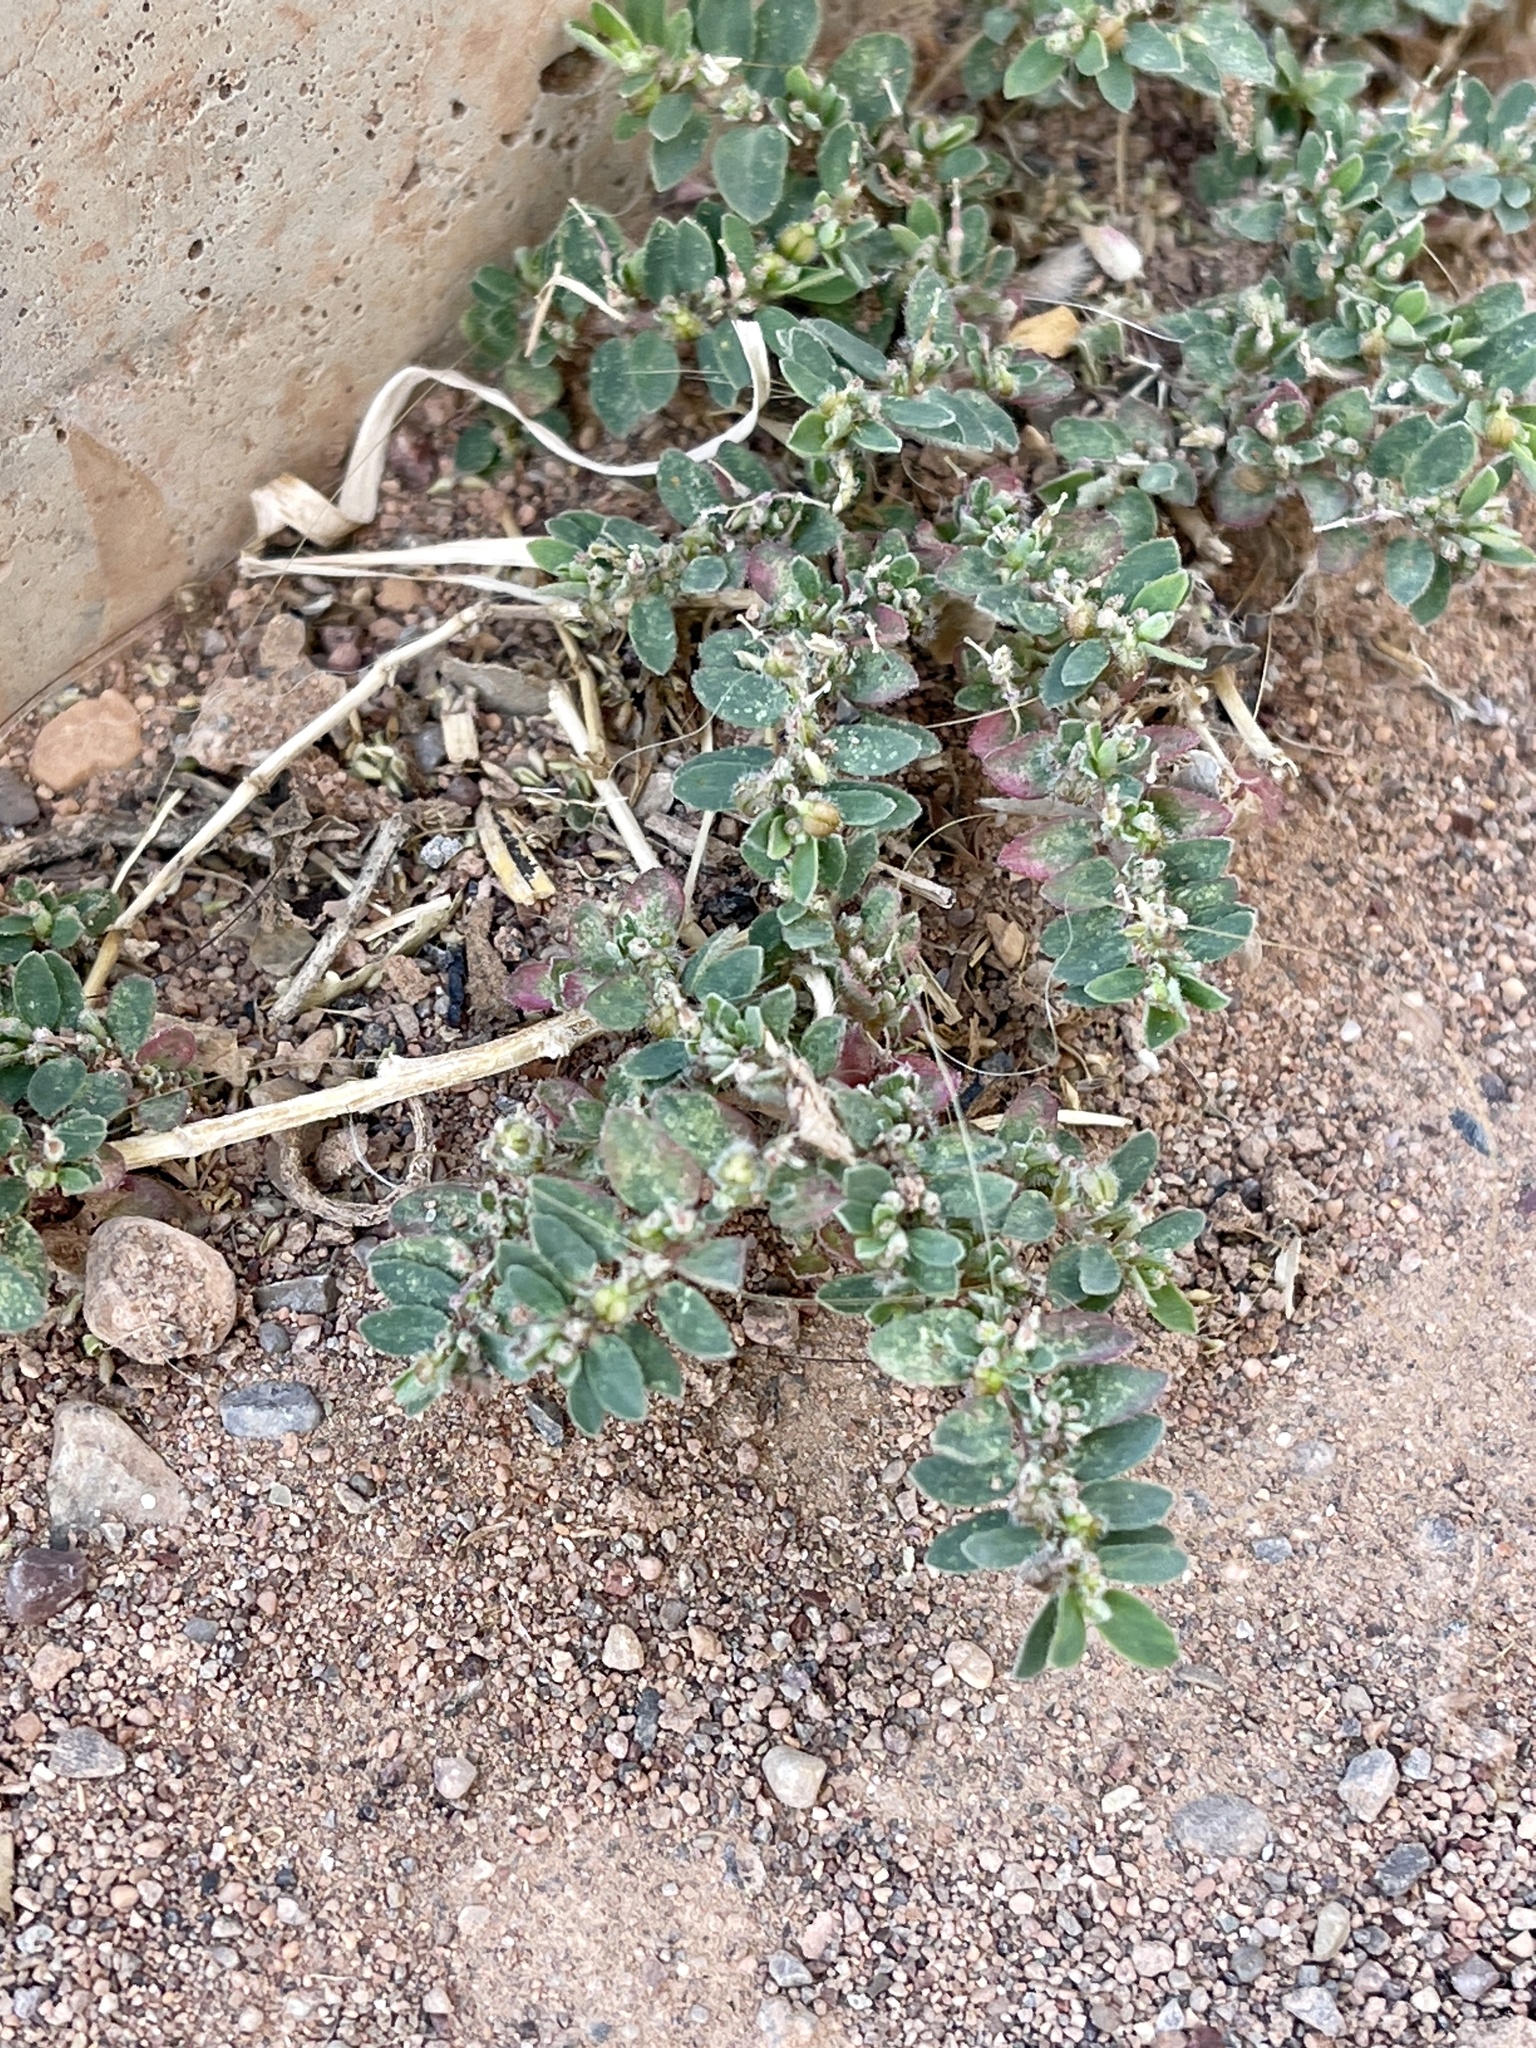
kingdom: Plantae
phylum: Tracheophyta
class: Magnoliopsida
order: Malpighiales
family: Euphorbiaceae
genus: Euphorbia
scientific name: Euphorbia prostrata
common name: Prostrate sandmat
